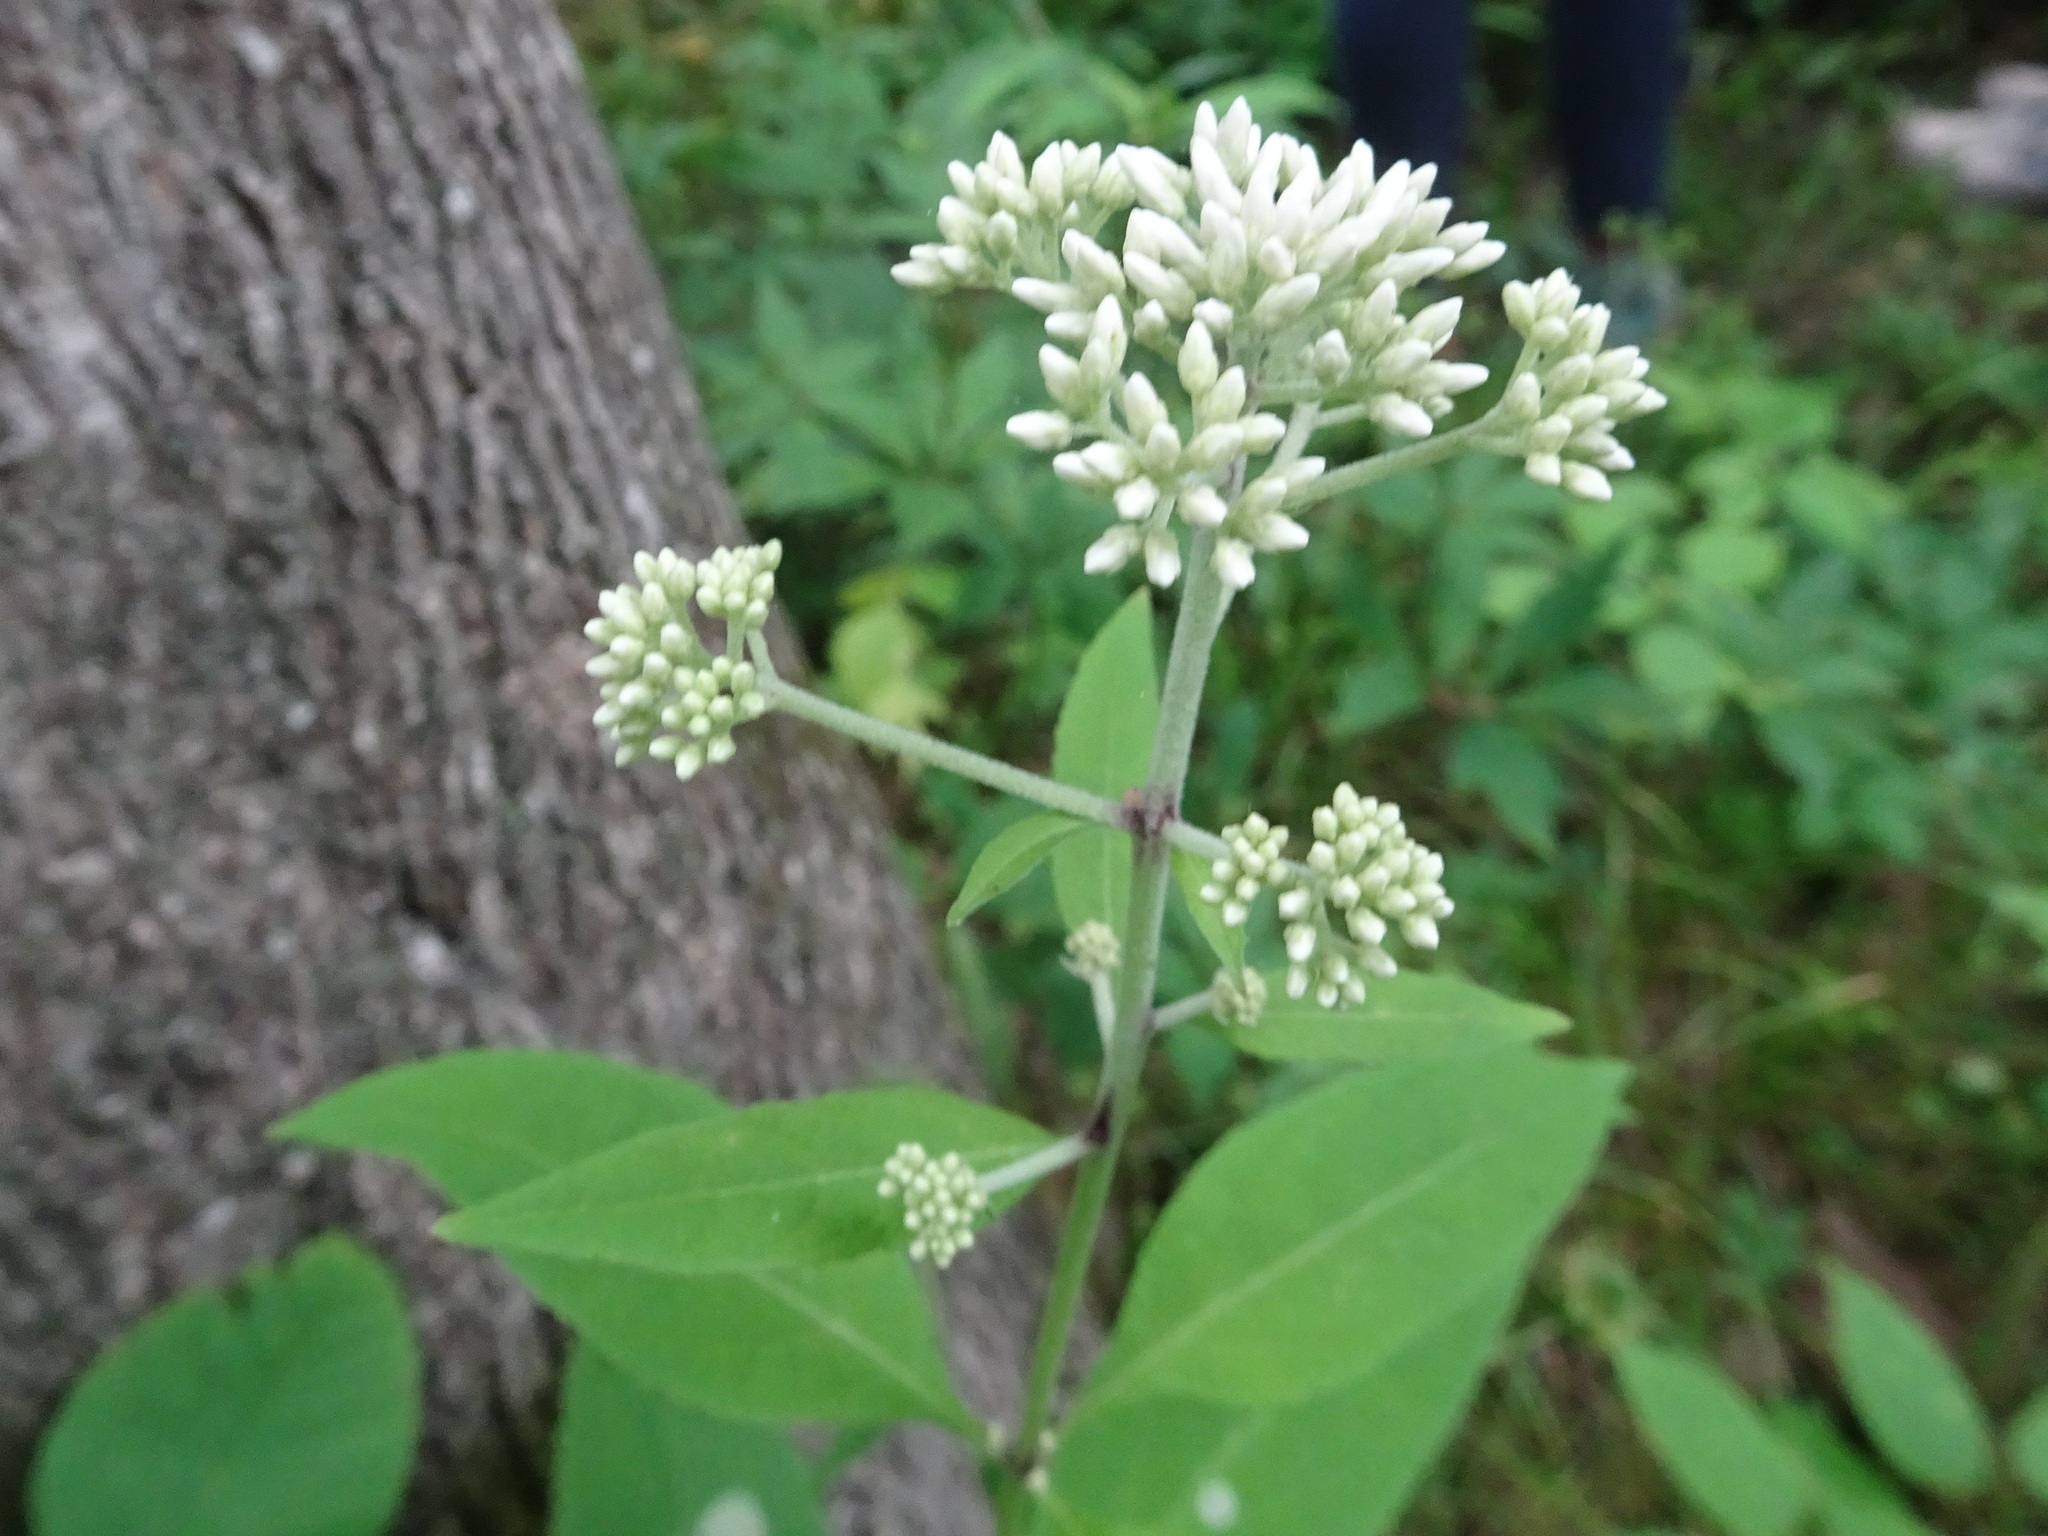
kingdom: Plantae
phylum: Tracheophyta
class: Magnoliopsida
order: Asterales
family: Asteraceae
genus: Eutrochium
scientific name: Eutrochium purpureum
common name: Gravelroot
